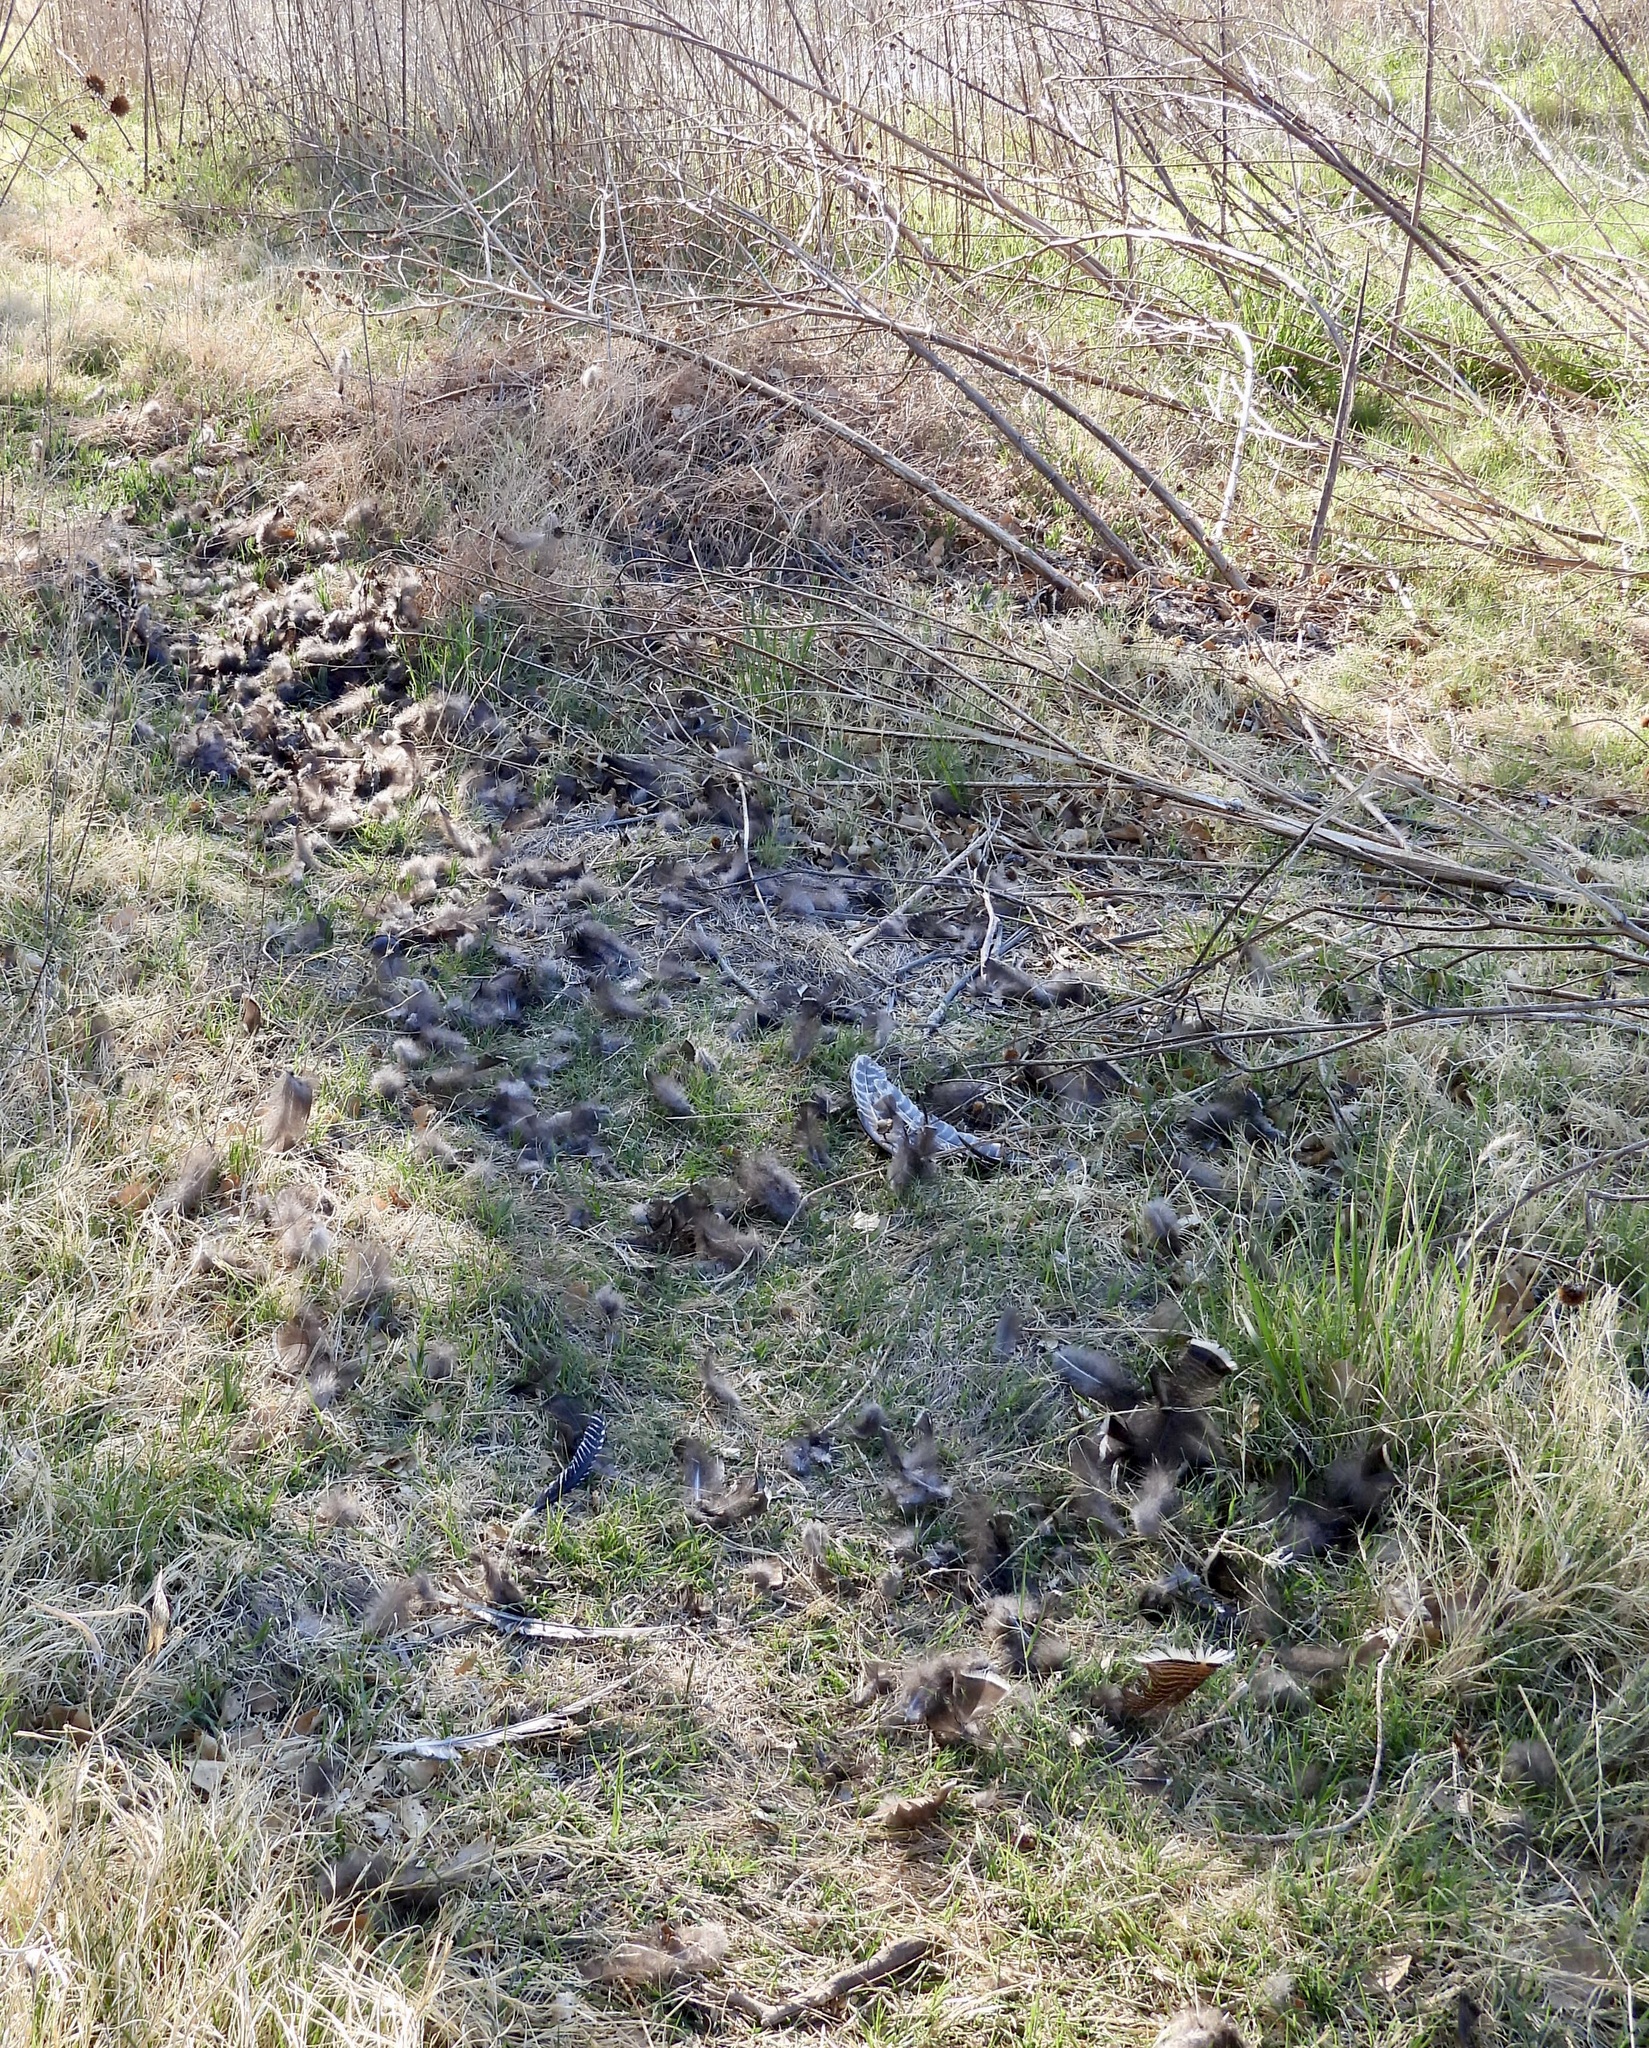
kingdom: Animalia
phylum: Chordata
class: Aves
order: Galliformes
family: Phasianidae
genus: Meleagris
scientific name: Meleagris gallopavo
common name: Wild turkey
